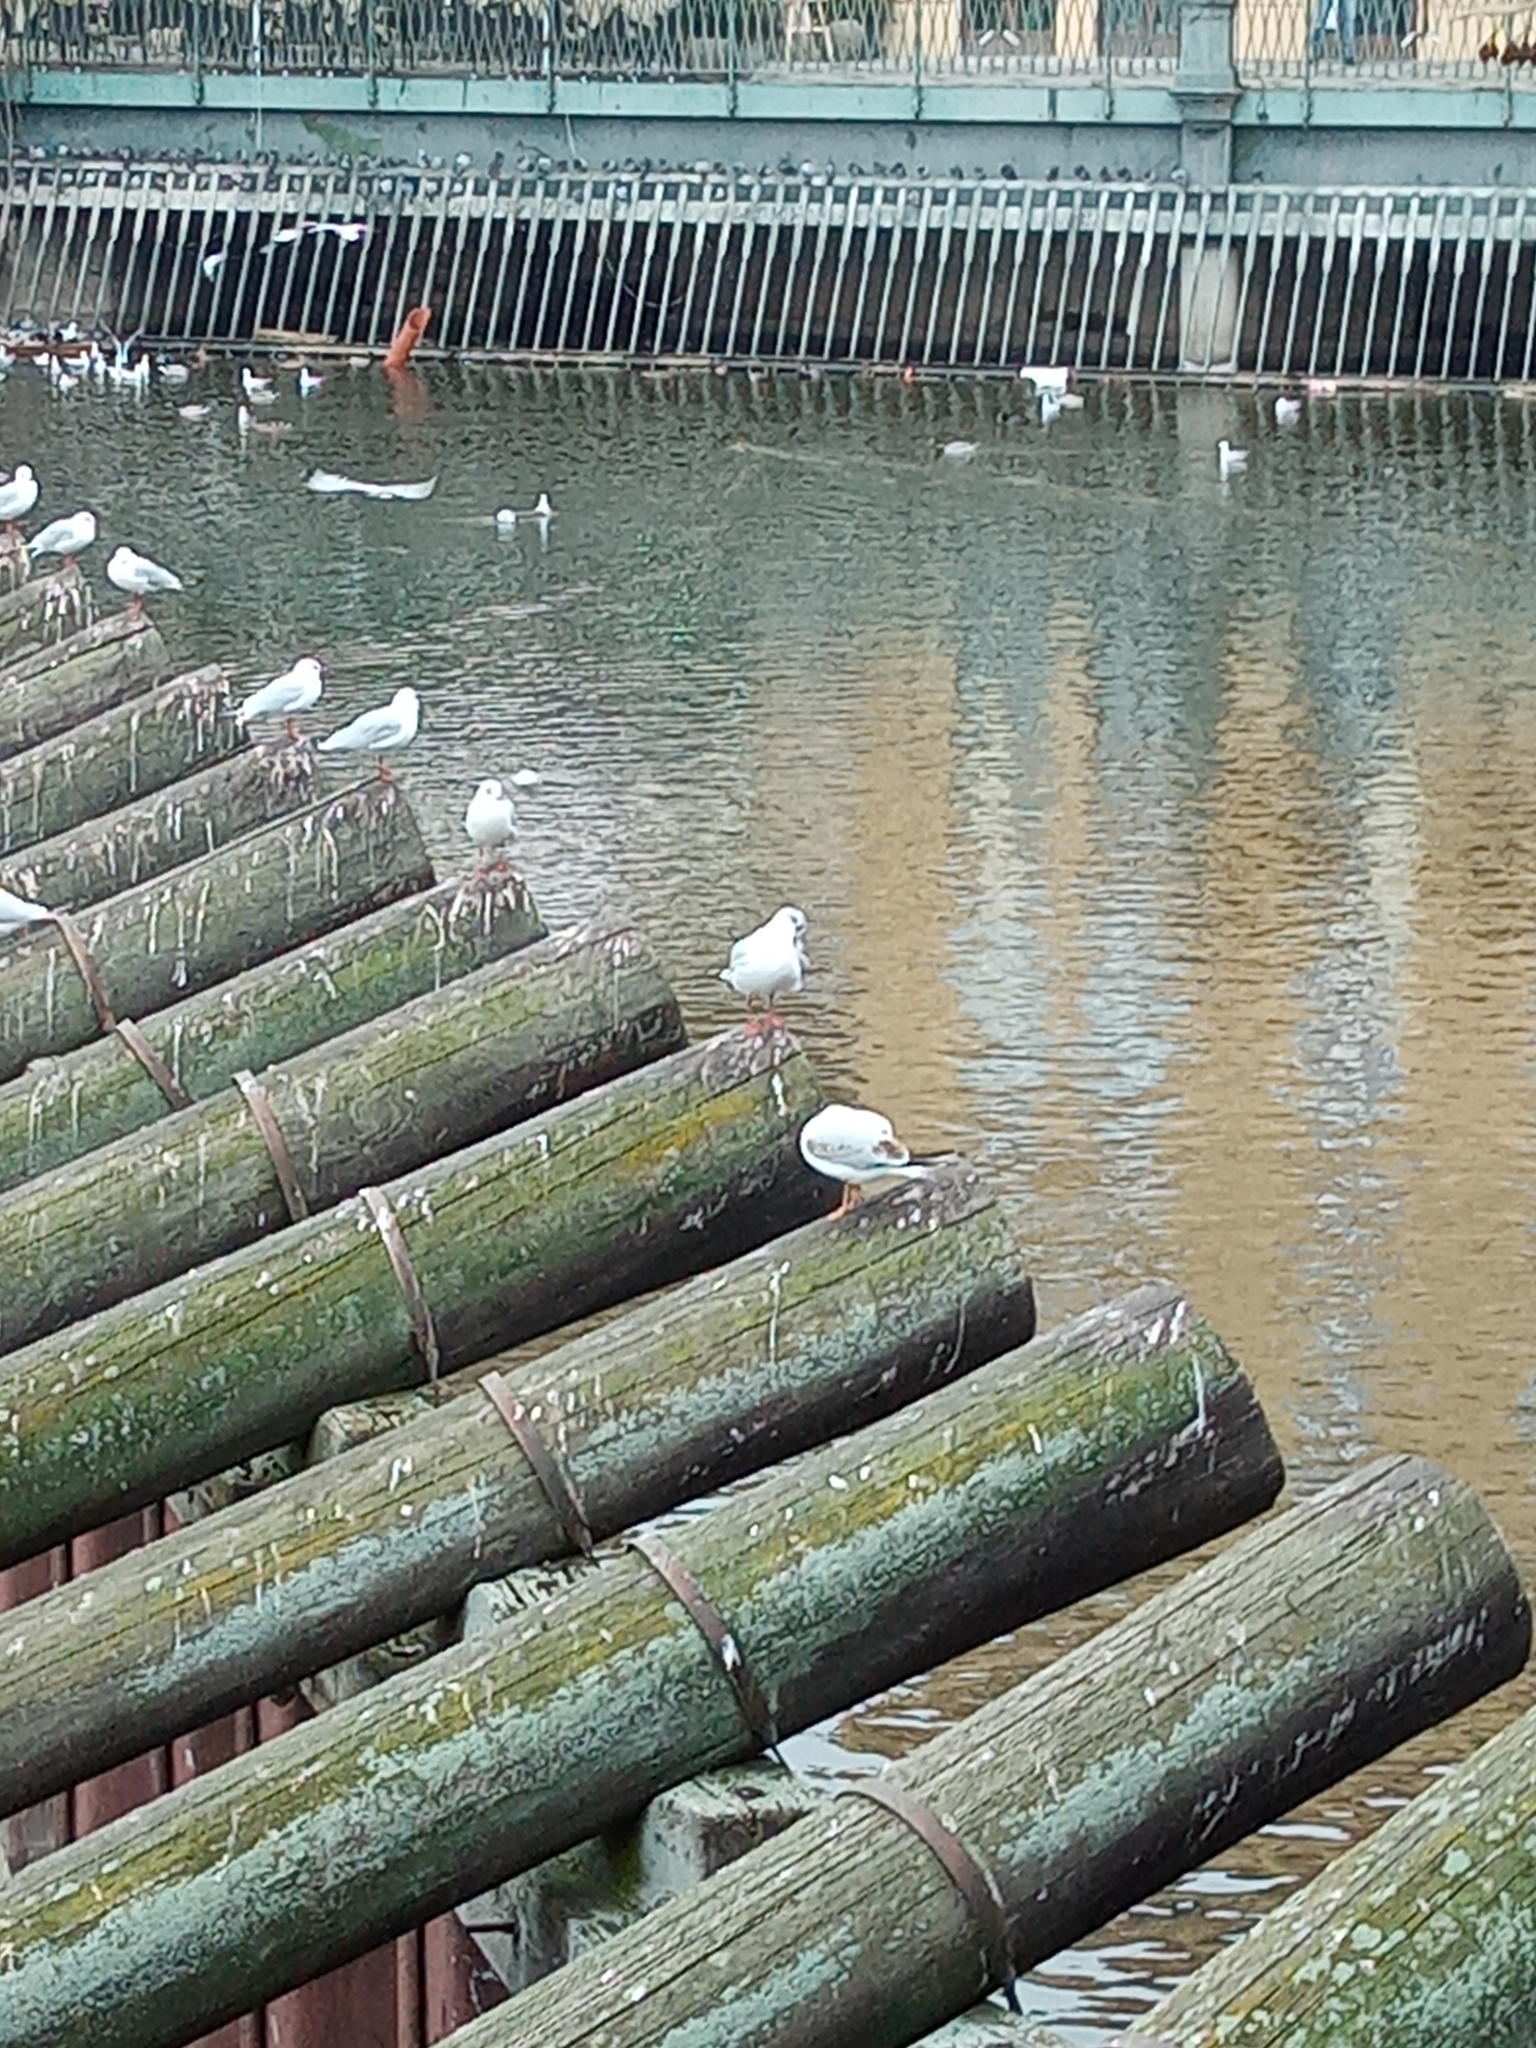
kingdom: Animalia
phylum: Chordata
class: Aves
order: Charadriiformes
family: Laridae
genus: Chroicocephalus
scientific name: Chroicocephalus ridibundus
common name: Black-headed gull
